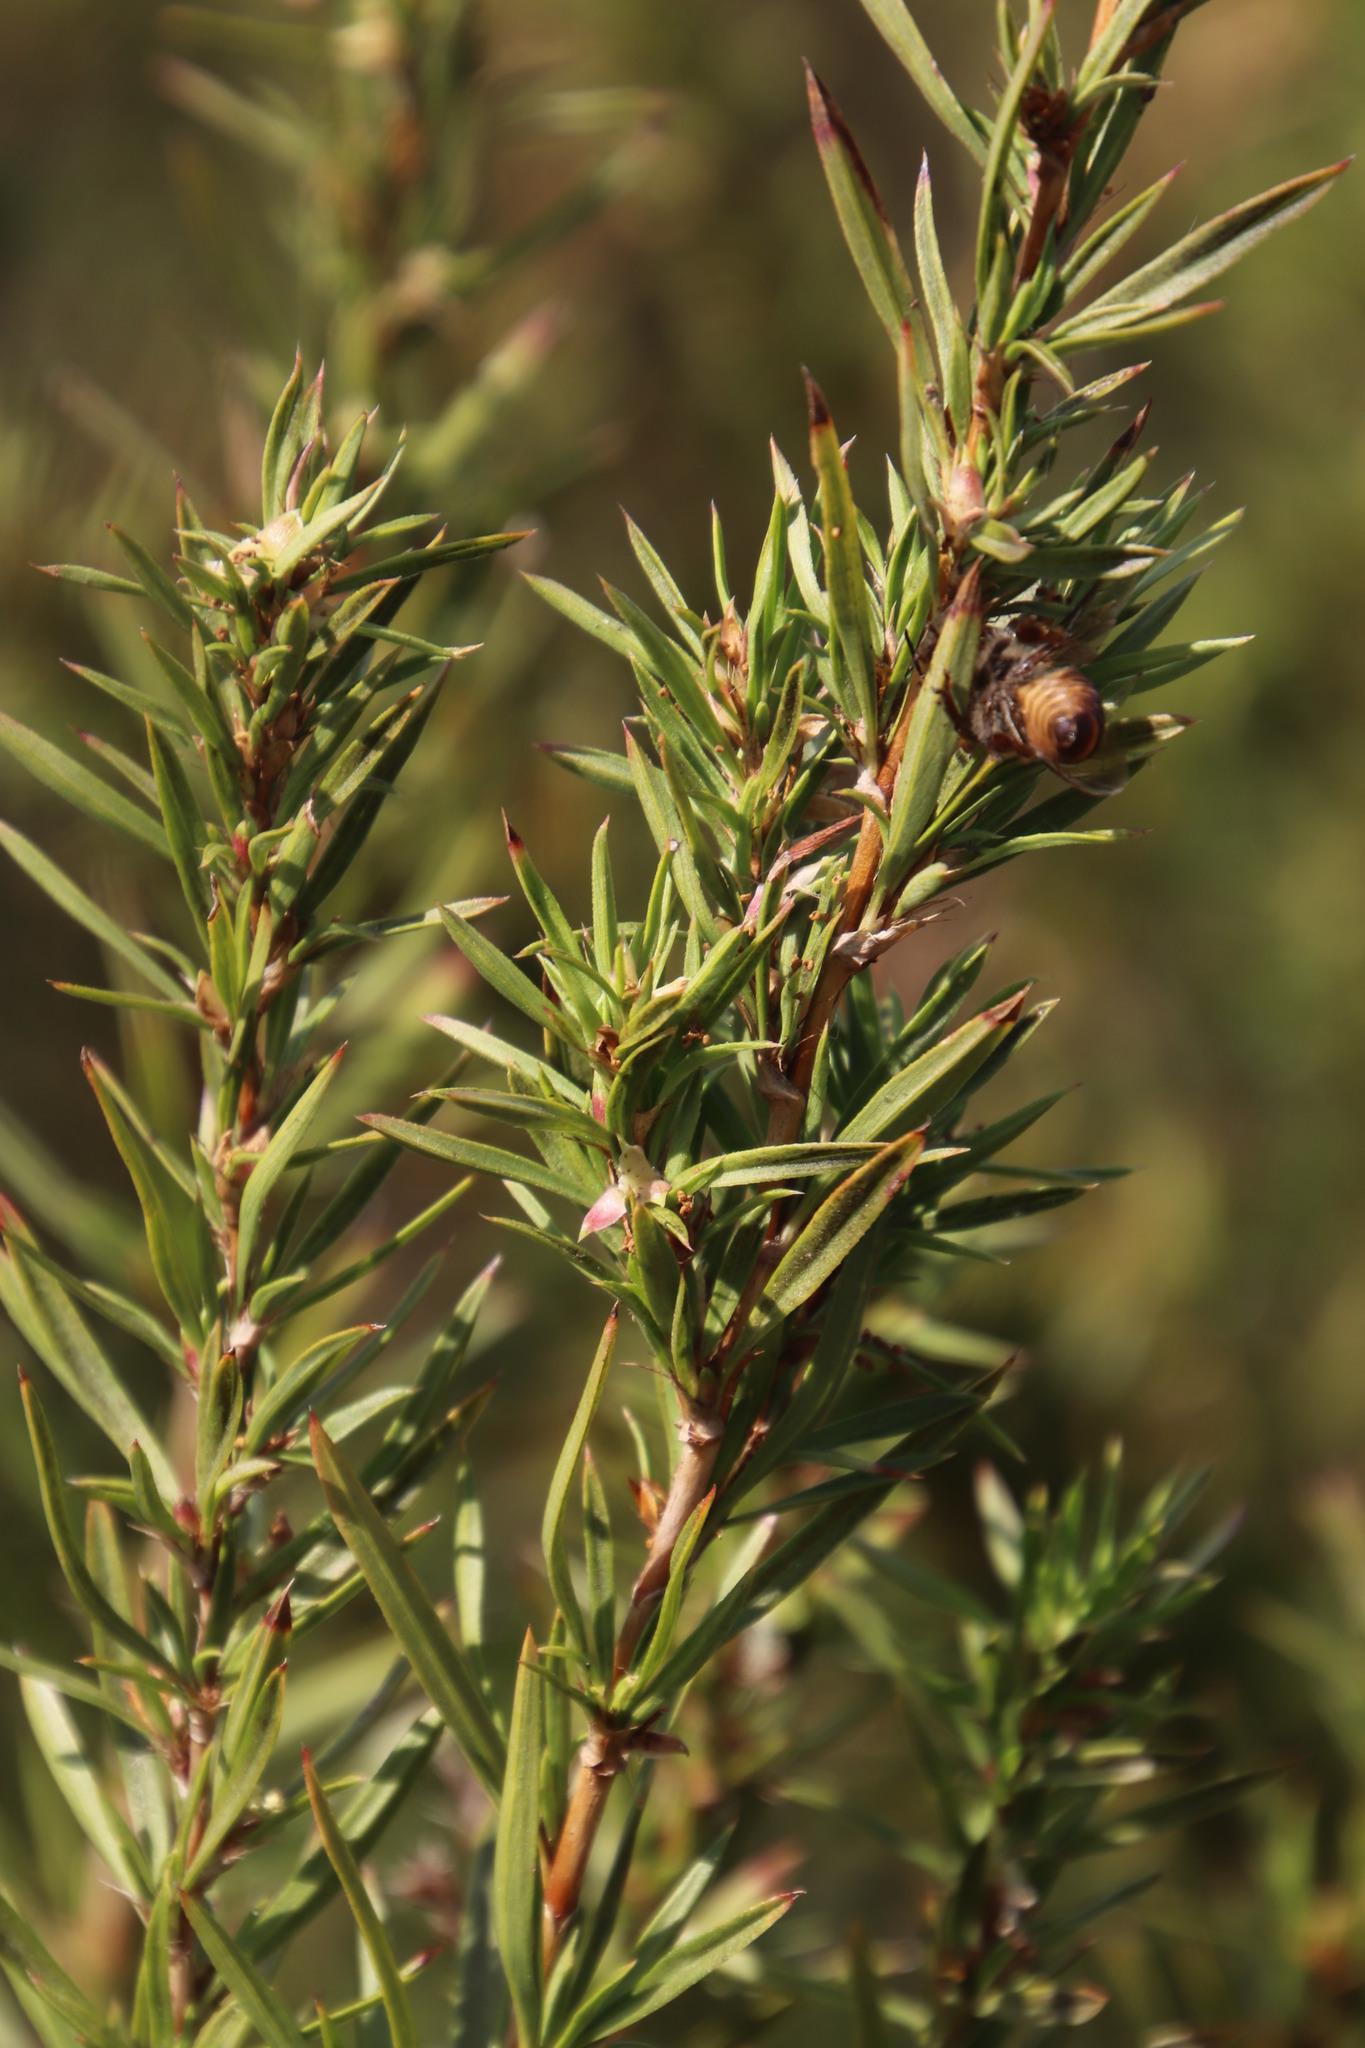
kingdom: Plantae
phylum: Tracheophyta
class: Magnoliopsida
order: Rosales
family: Rosaceae
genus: Cliffortia
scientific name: Cliffortia strobilifera
